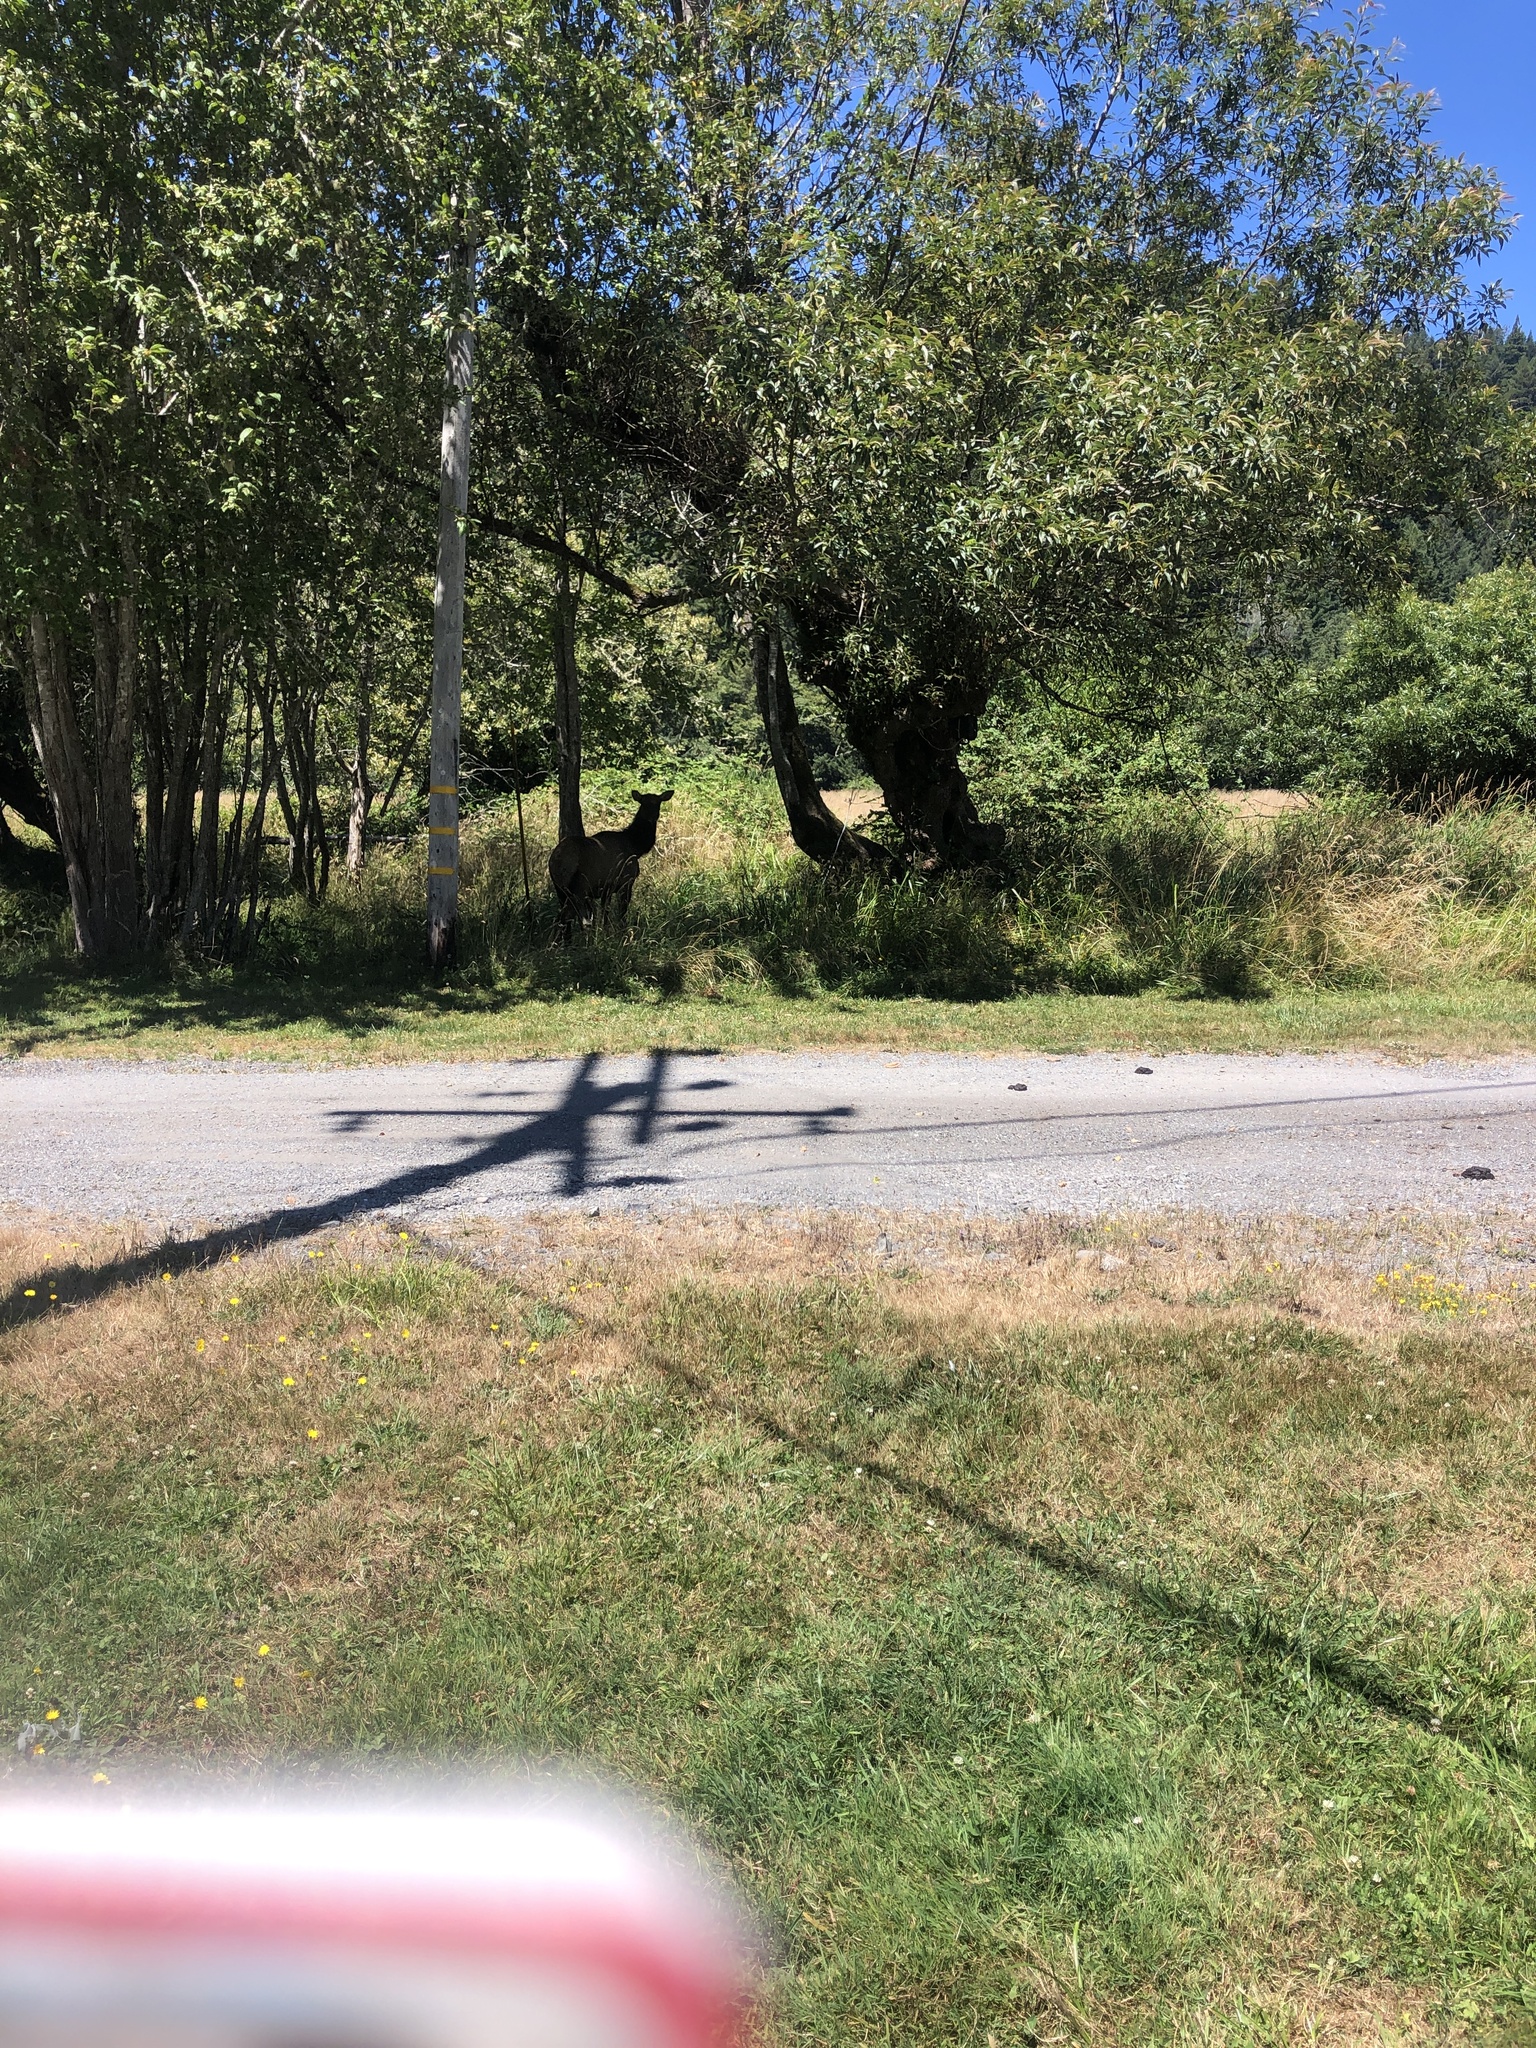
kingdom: Animalia
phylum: Chordata
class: Mammalia
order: Artiodactyla
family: Cervidae
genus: Cervus
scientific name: Cervus elaphus
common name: Red deer
